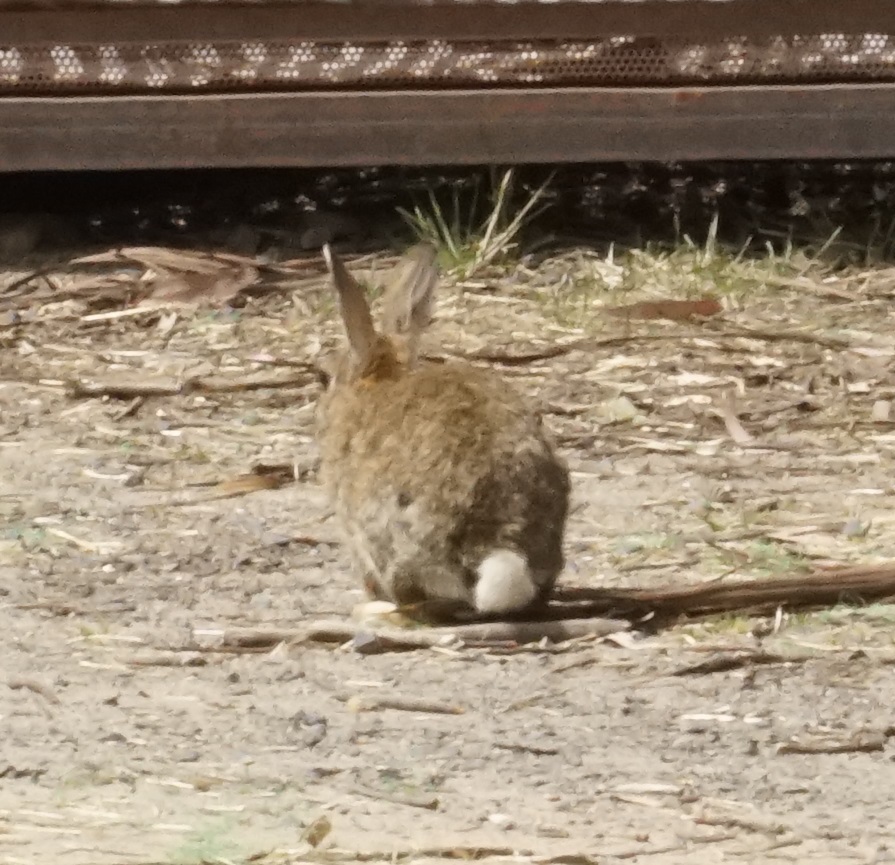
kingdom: Animalia
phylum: Chordata
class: Mammalia
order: Lagomorpha
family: Leporidae
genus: Oryctolagus
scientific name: Oryctolagus cuniculus
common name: European rabbit
